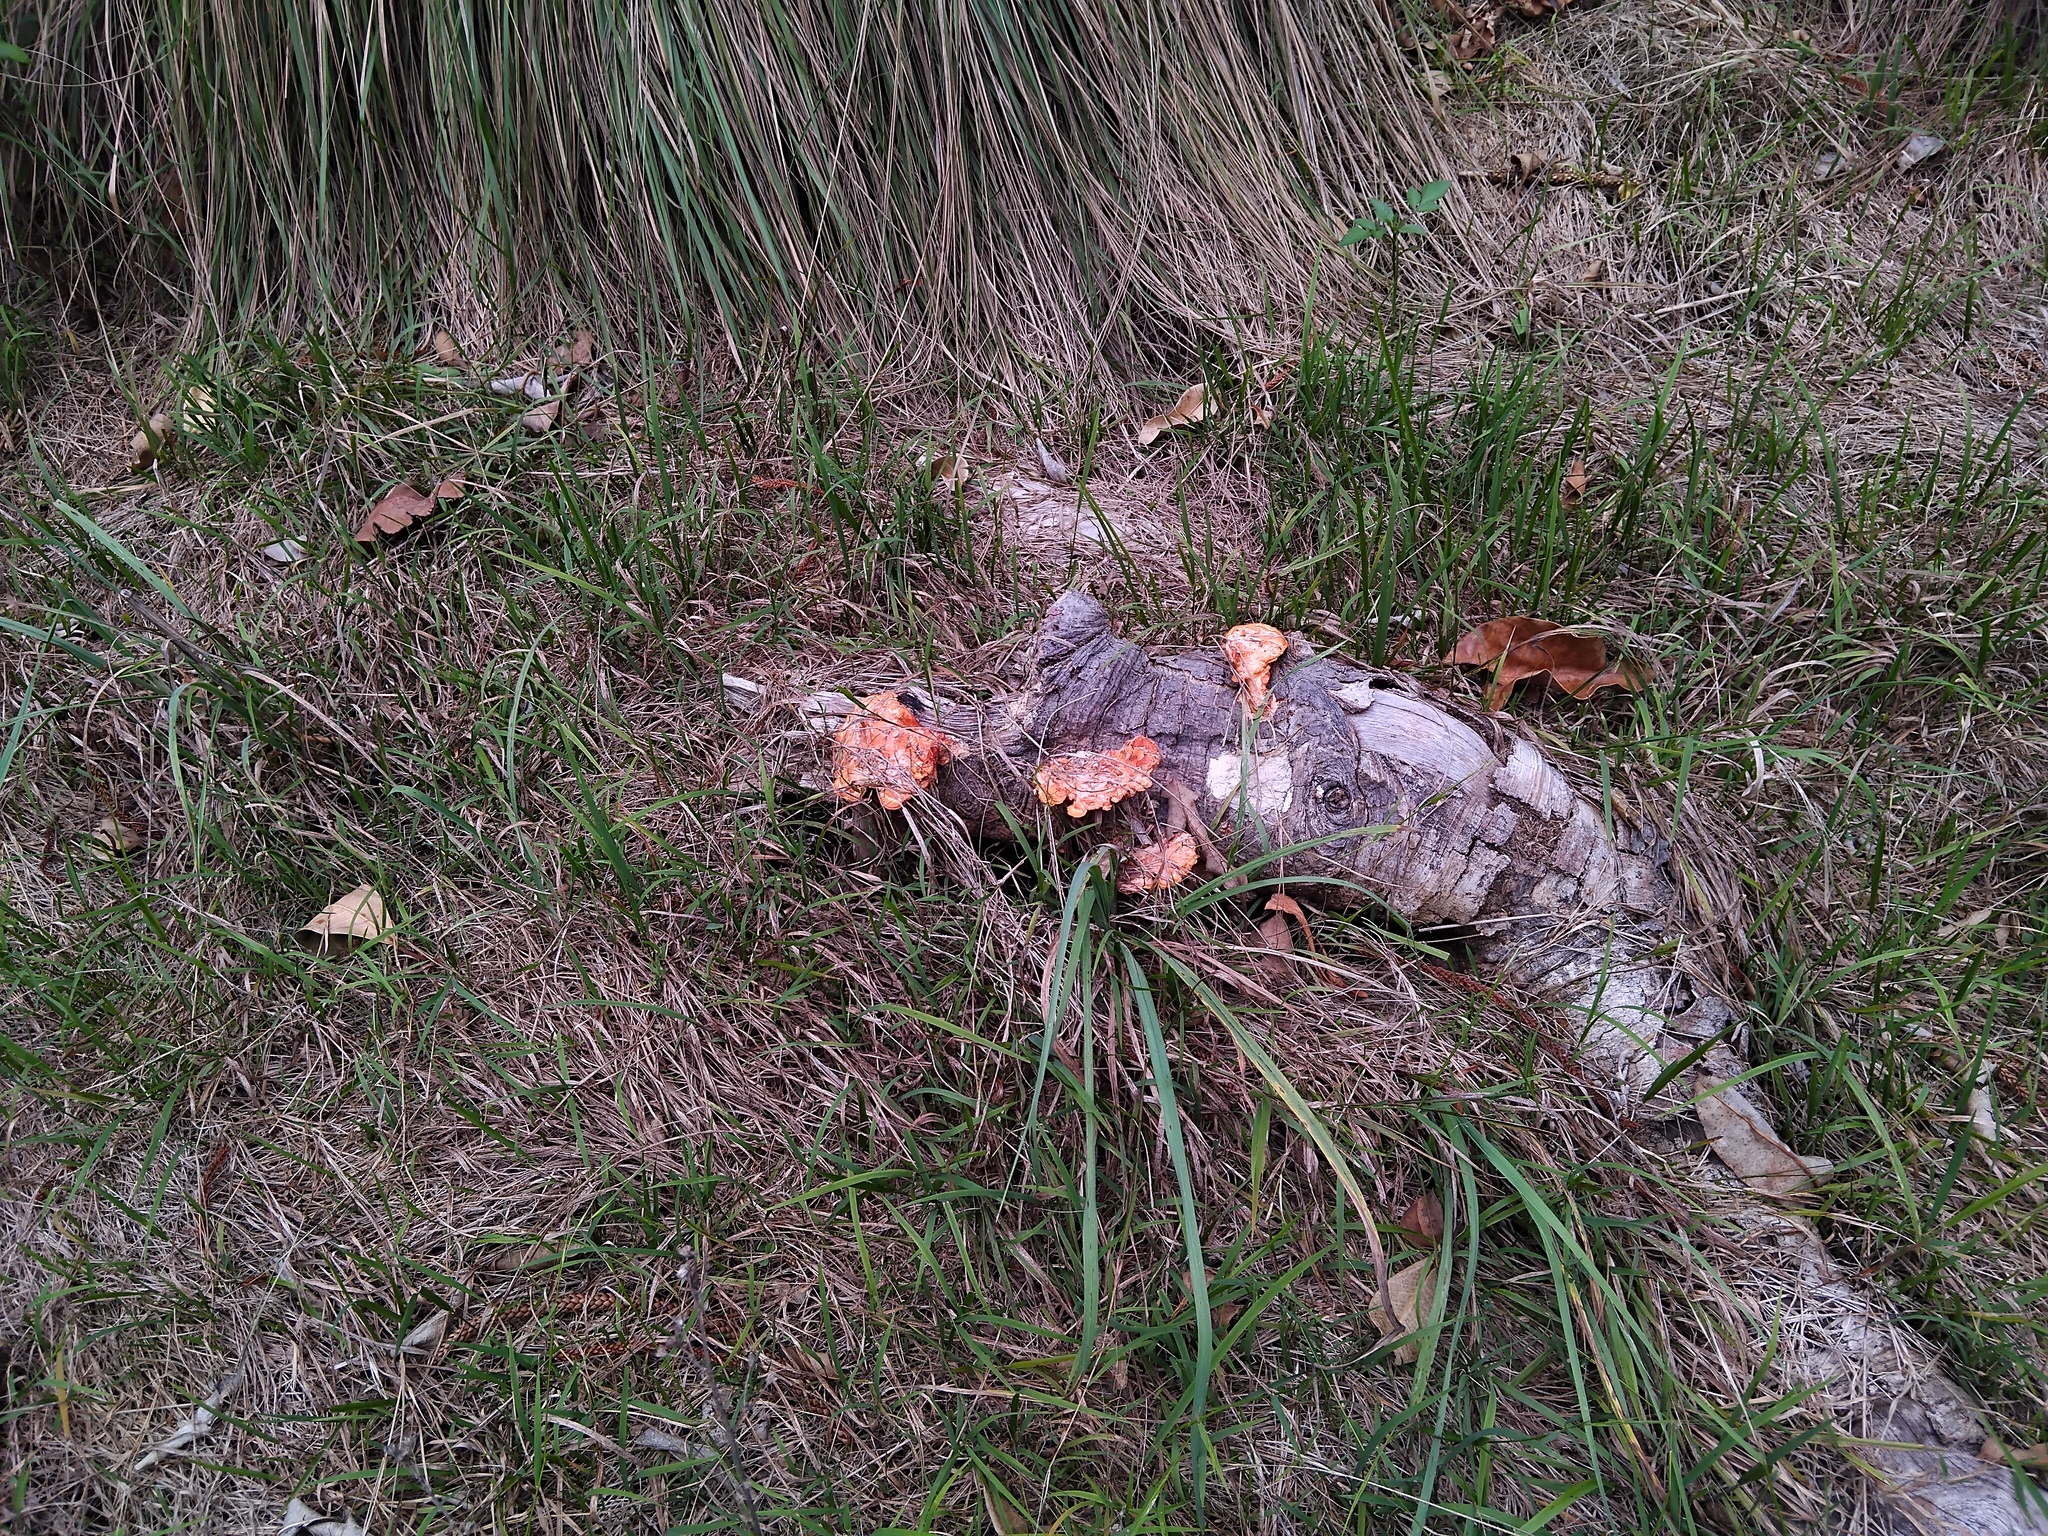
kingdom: Fungi
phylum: Basidiomycota
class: Agaricomycetes
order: Polyporales
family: Polyporaceae
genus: Trametes
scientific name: Trametes coccinea
